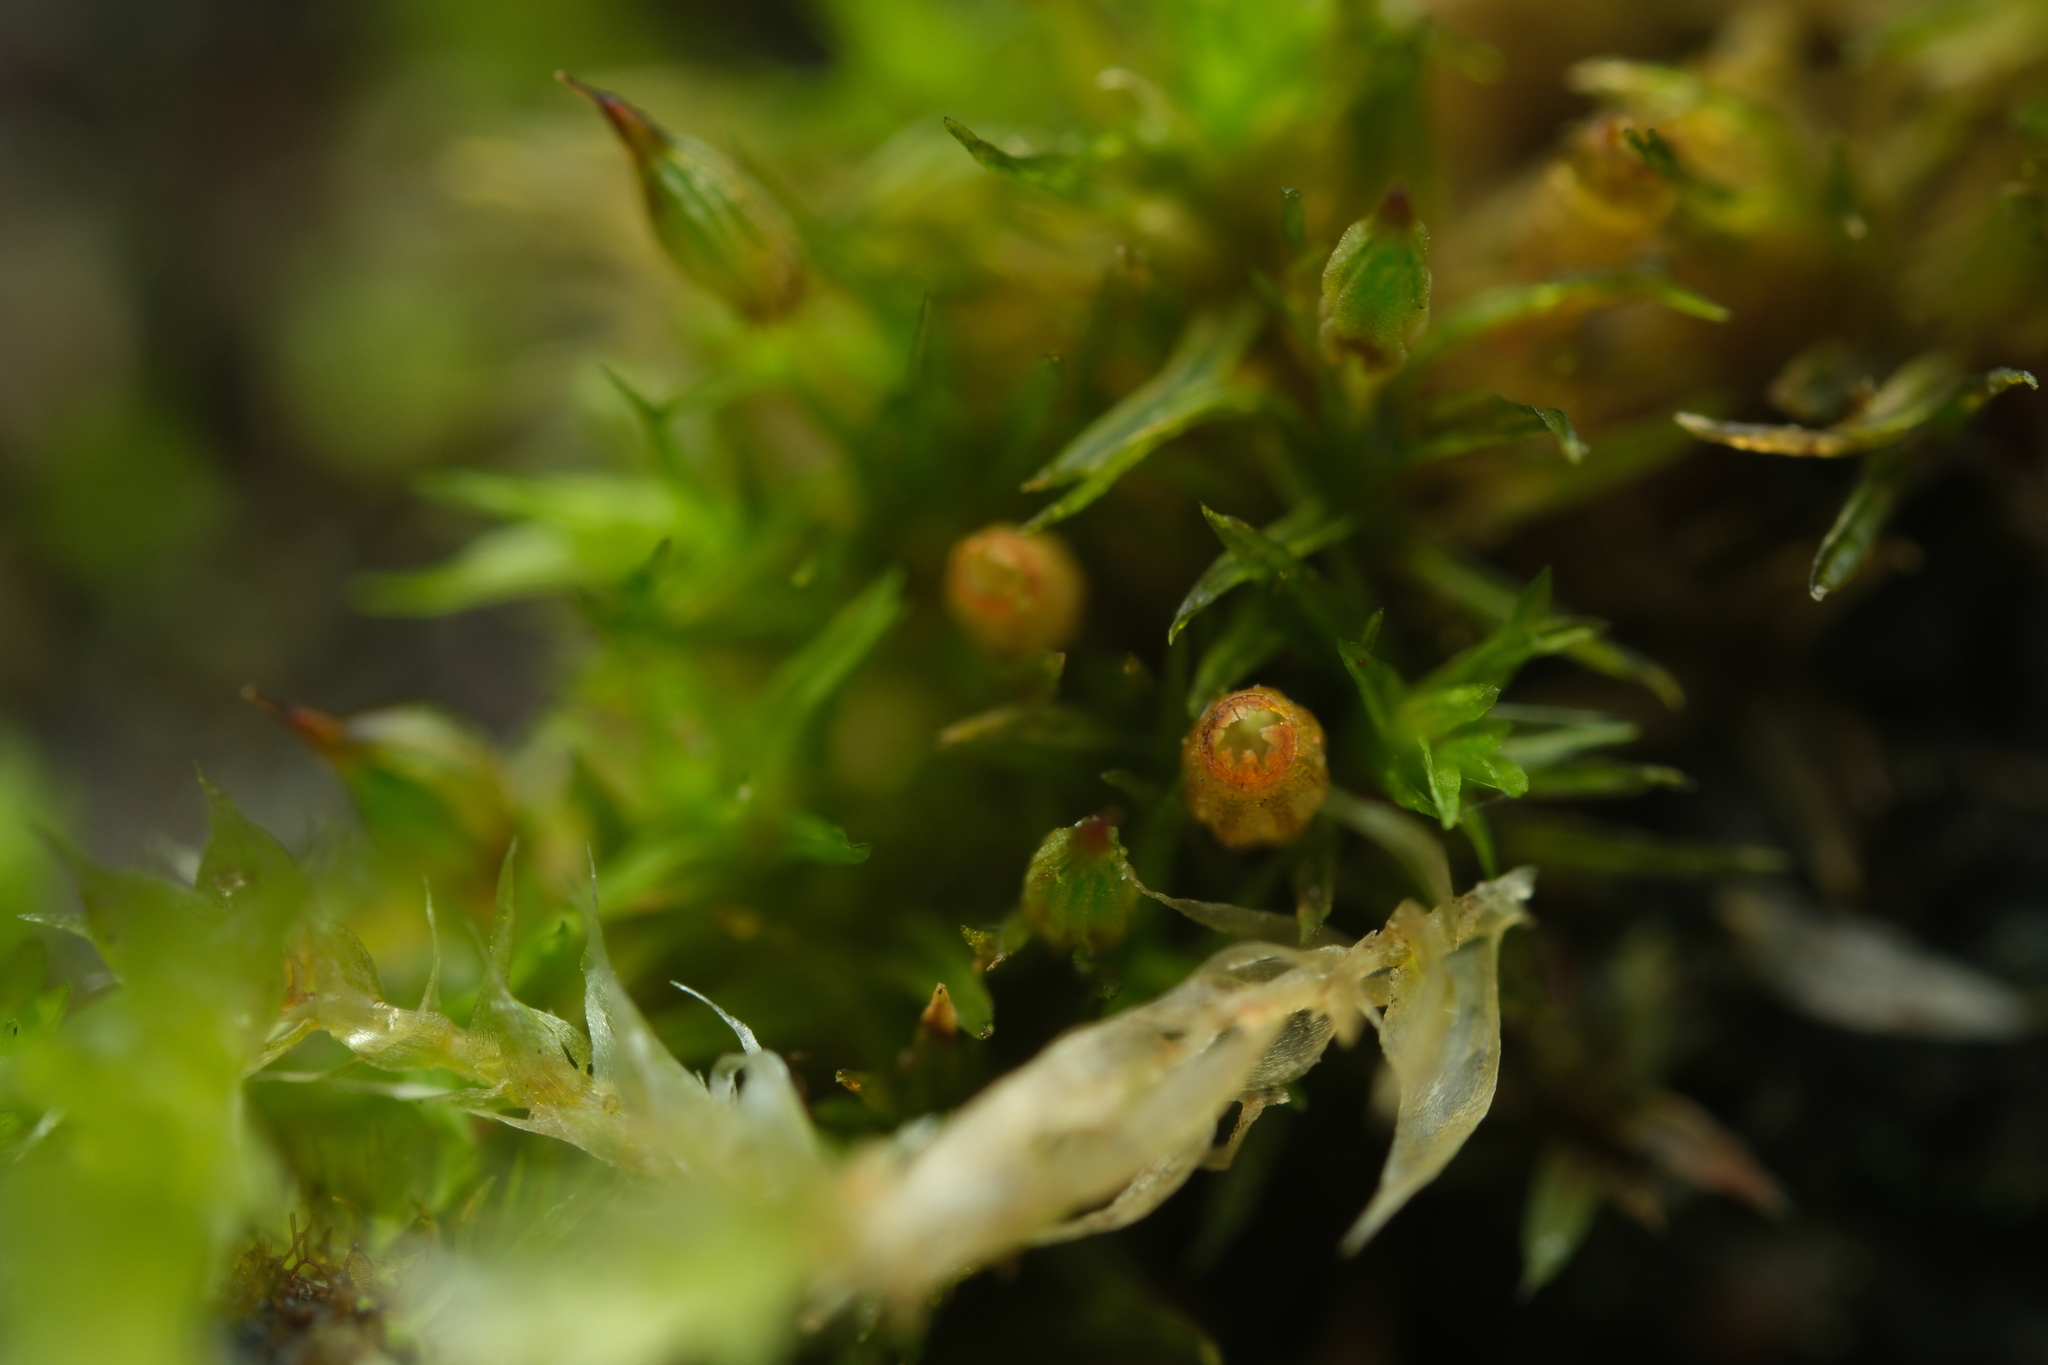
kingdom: Plantae
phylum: Bryophyta
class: Bryopsida
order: Orthotrichales
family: Orthotrichaceae
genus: Orthotrichum
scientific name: Orthotrichum pulchellum
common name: Elegant bristle-moss
